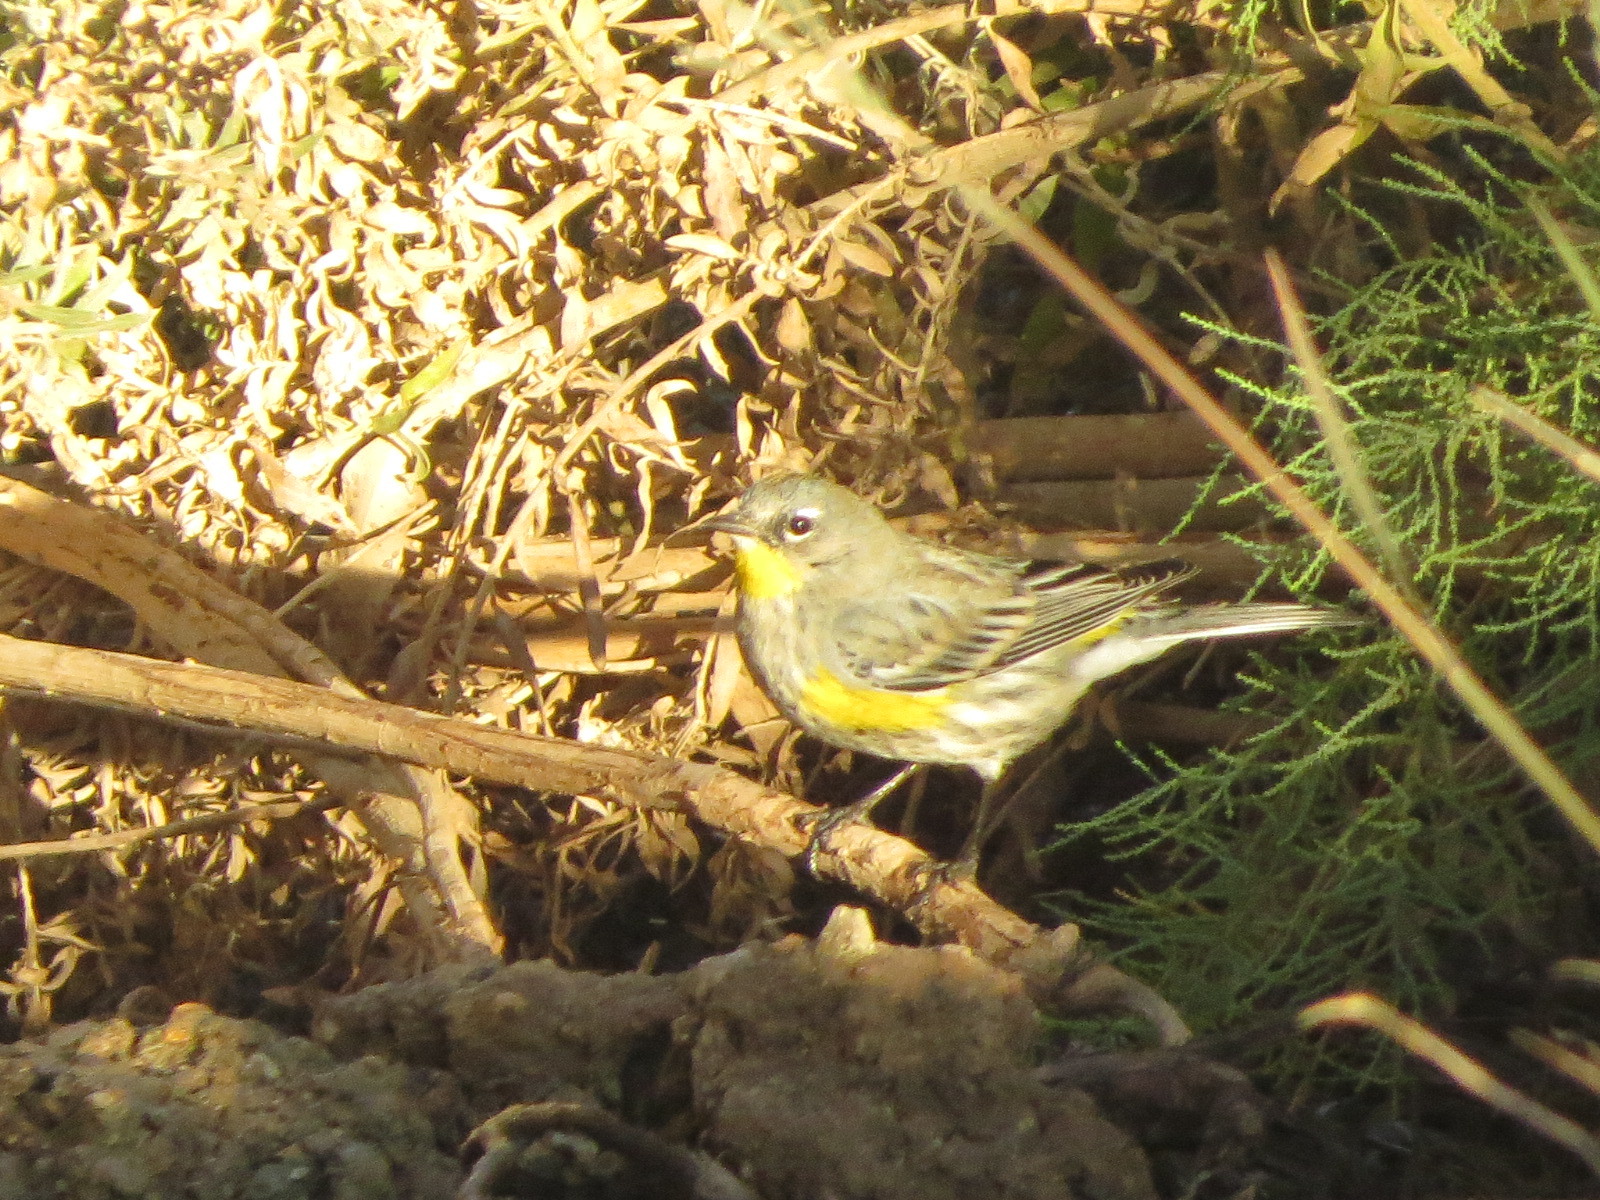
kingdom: Animalia
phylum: Chordata
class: Aves
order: Passeriformes
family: Parulidae
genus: Setophaga
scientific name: Setophaga auduboni
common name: Audubon's warbler
